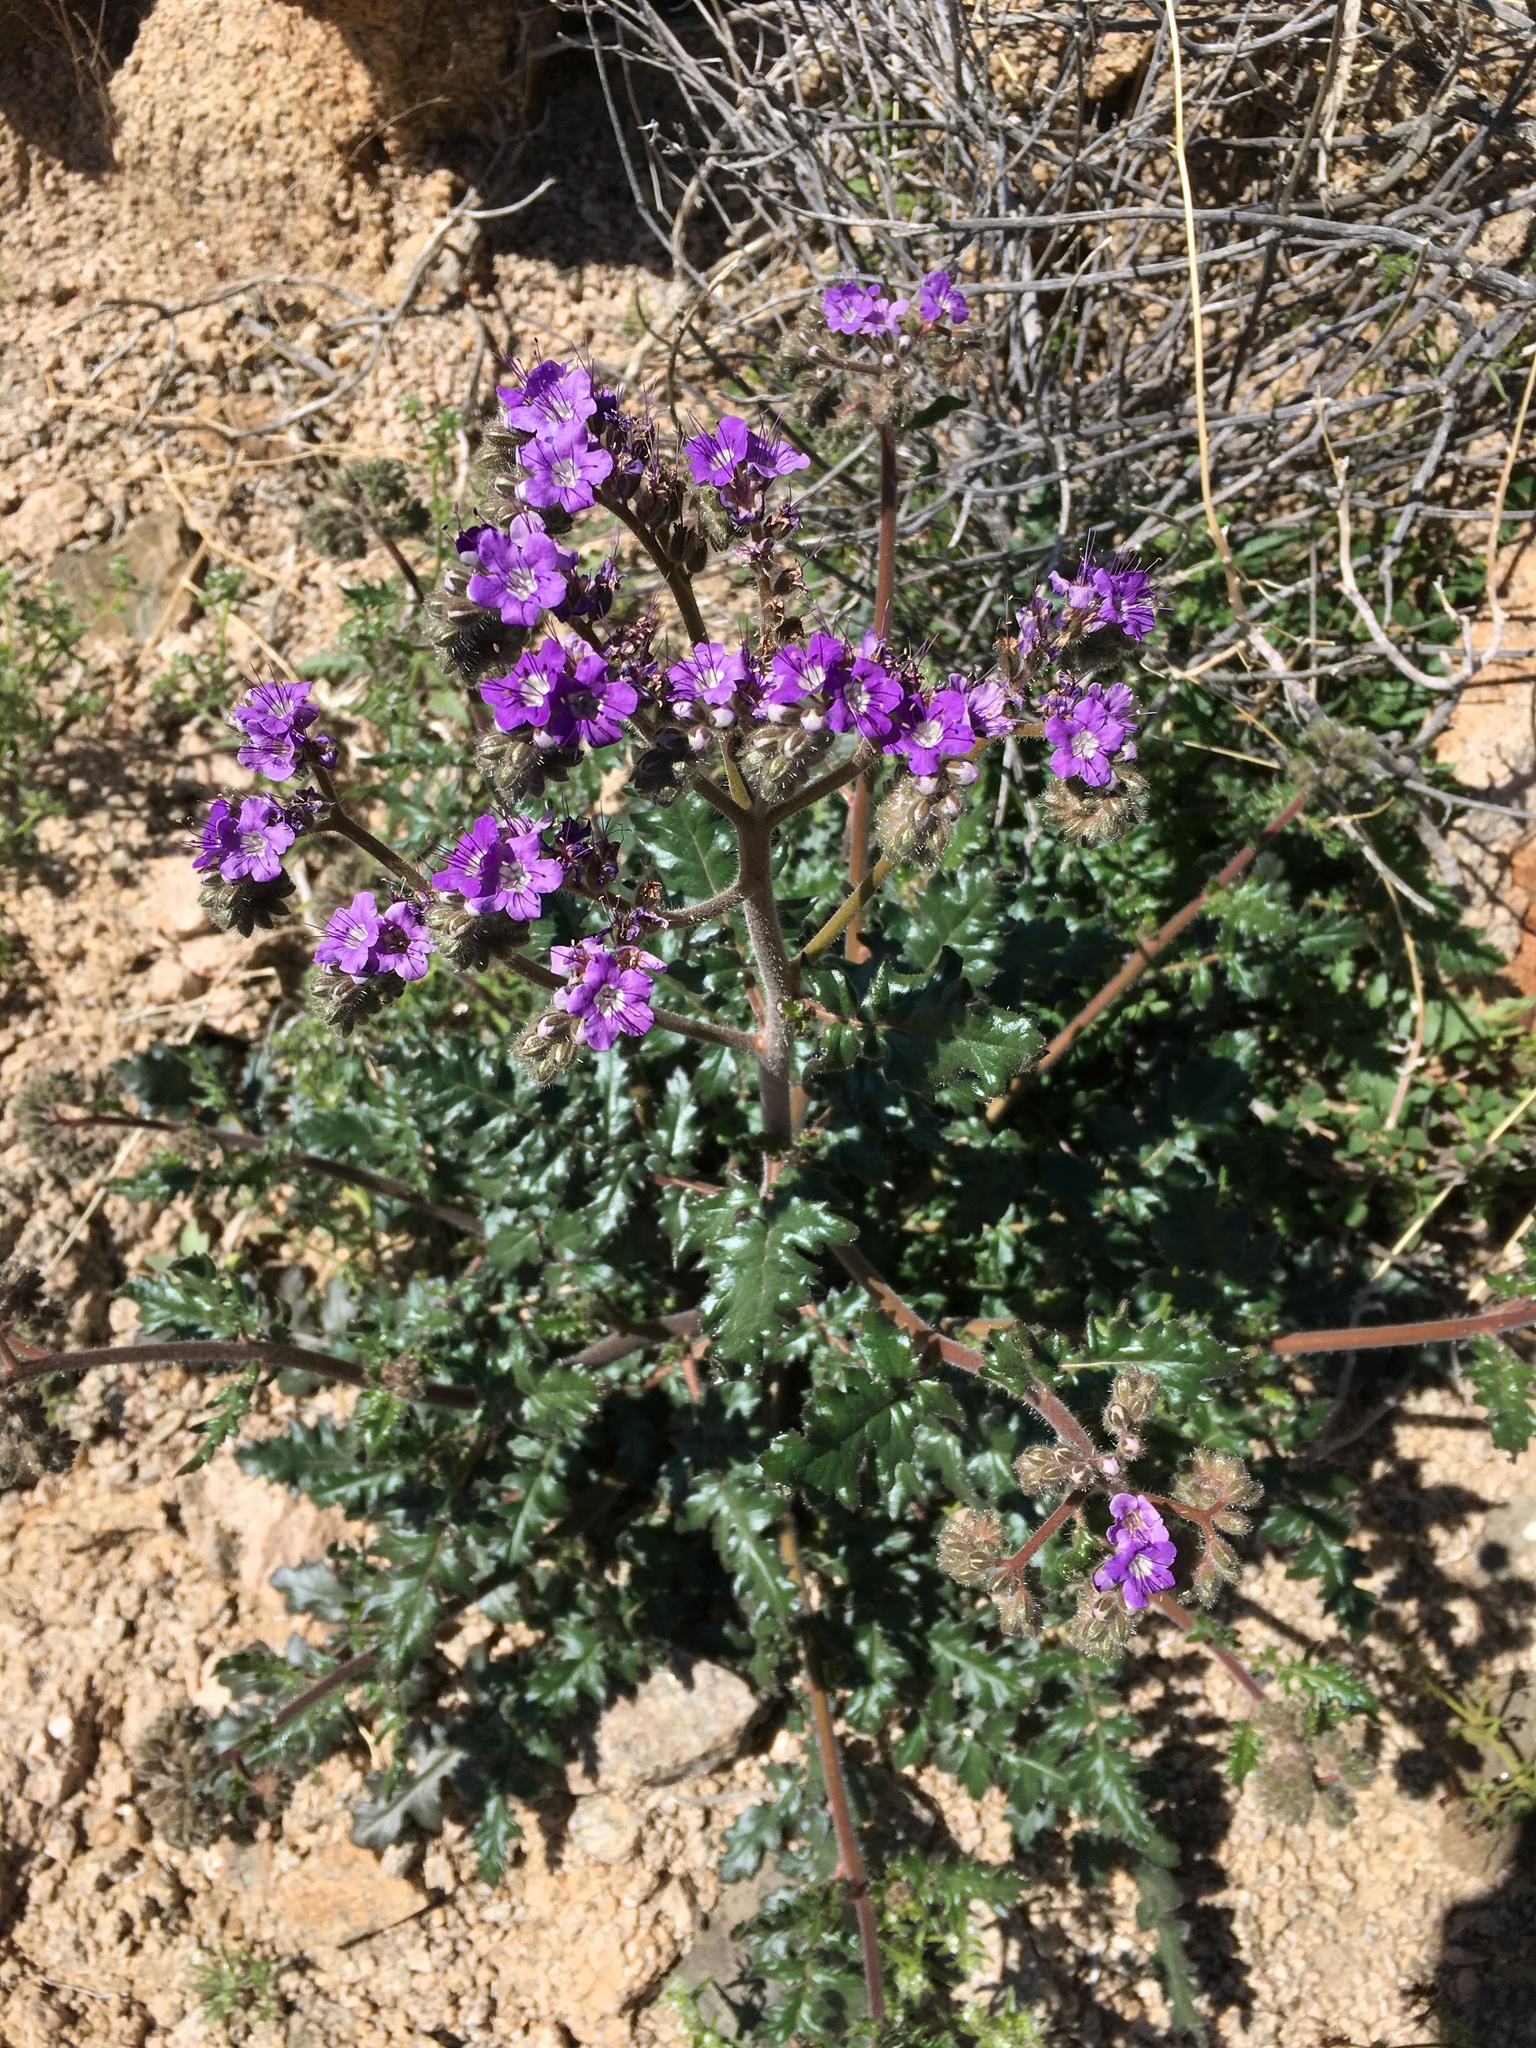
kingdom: Plantae
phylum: Tracheophyta
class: Magnoliopsida
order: Boraginales
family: Hydrophyllaceae
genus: Phacelia
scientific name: Phacelia crenulata
